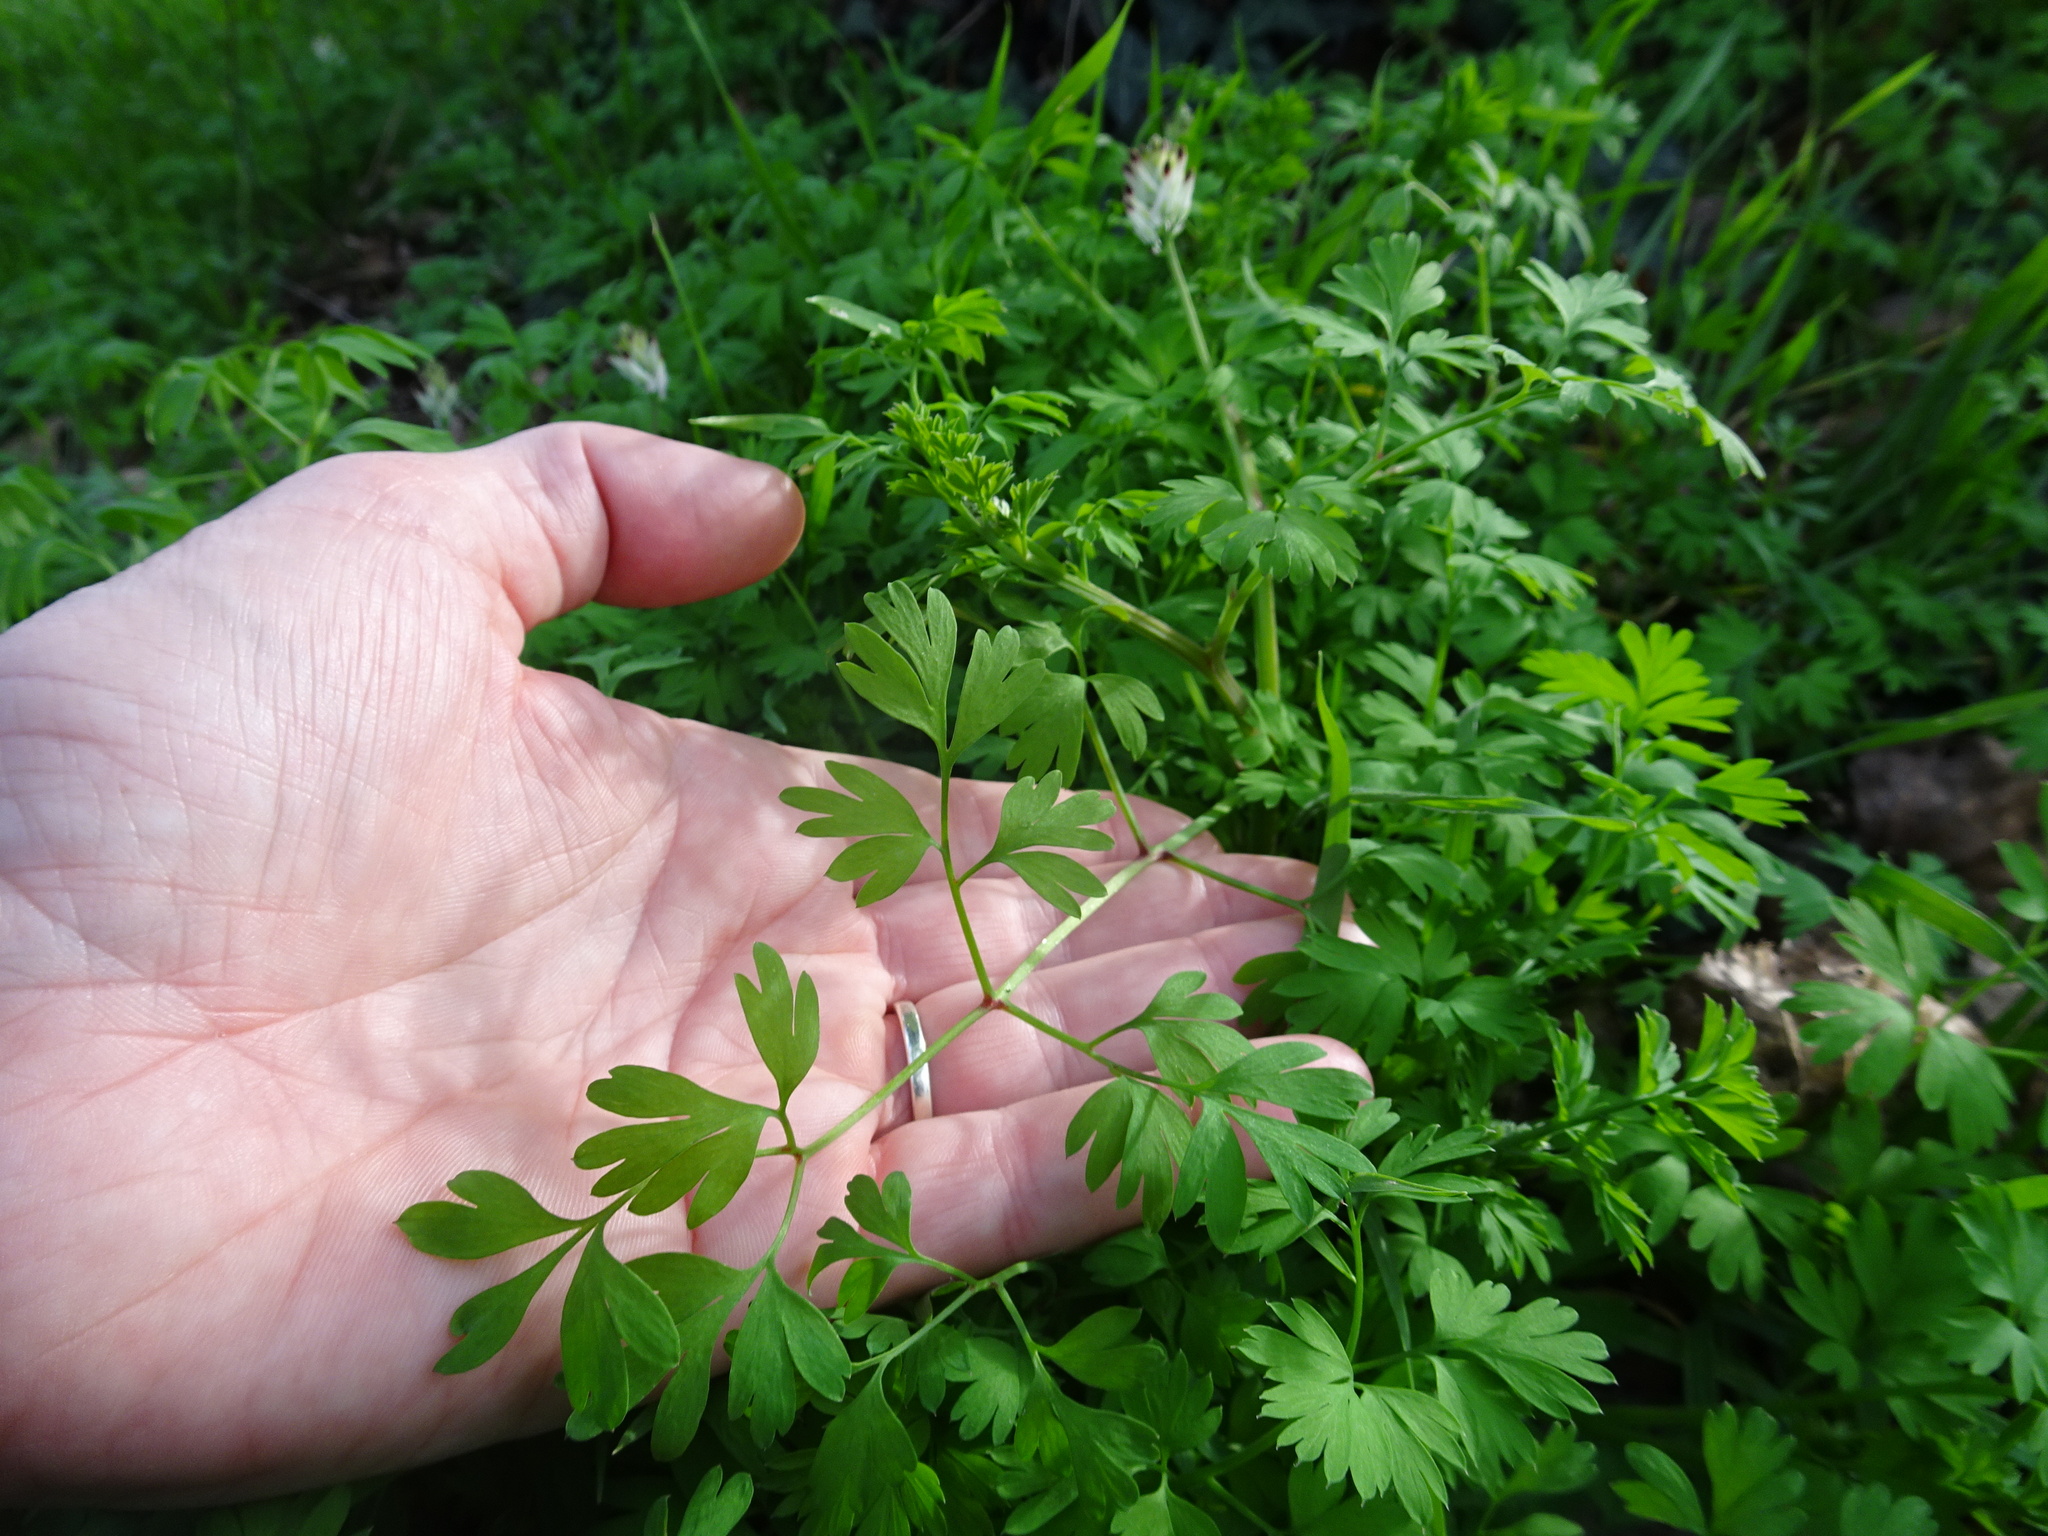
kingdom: Plantae
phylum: Tracheophyta
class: Magnoliopsida
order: Ranunculales
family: Papaveraceae
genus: Fumaria
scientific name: Fumaria capreolata
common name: White ramping-fumitory
